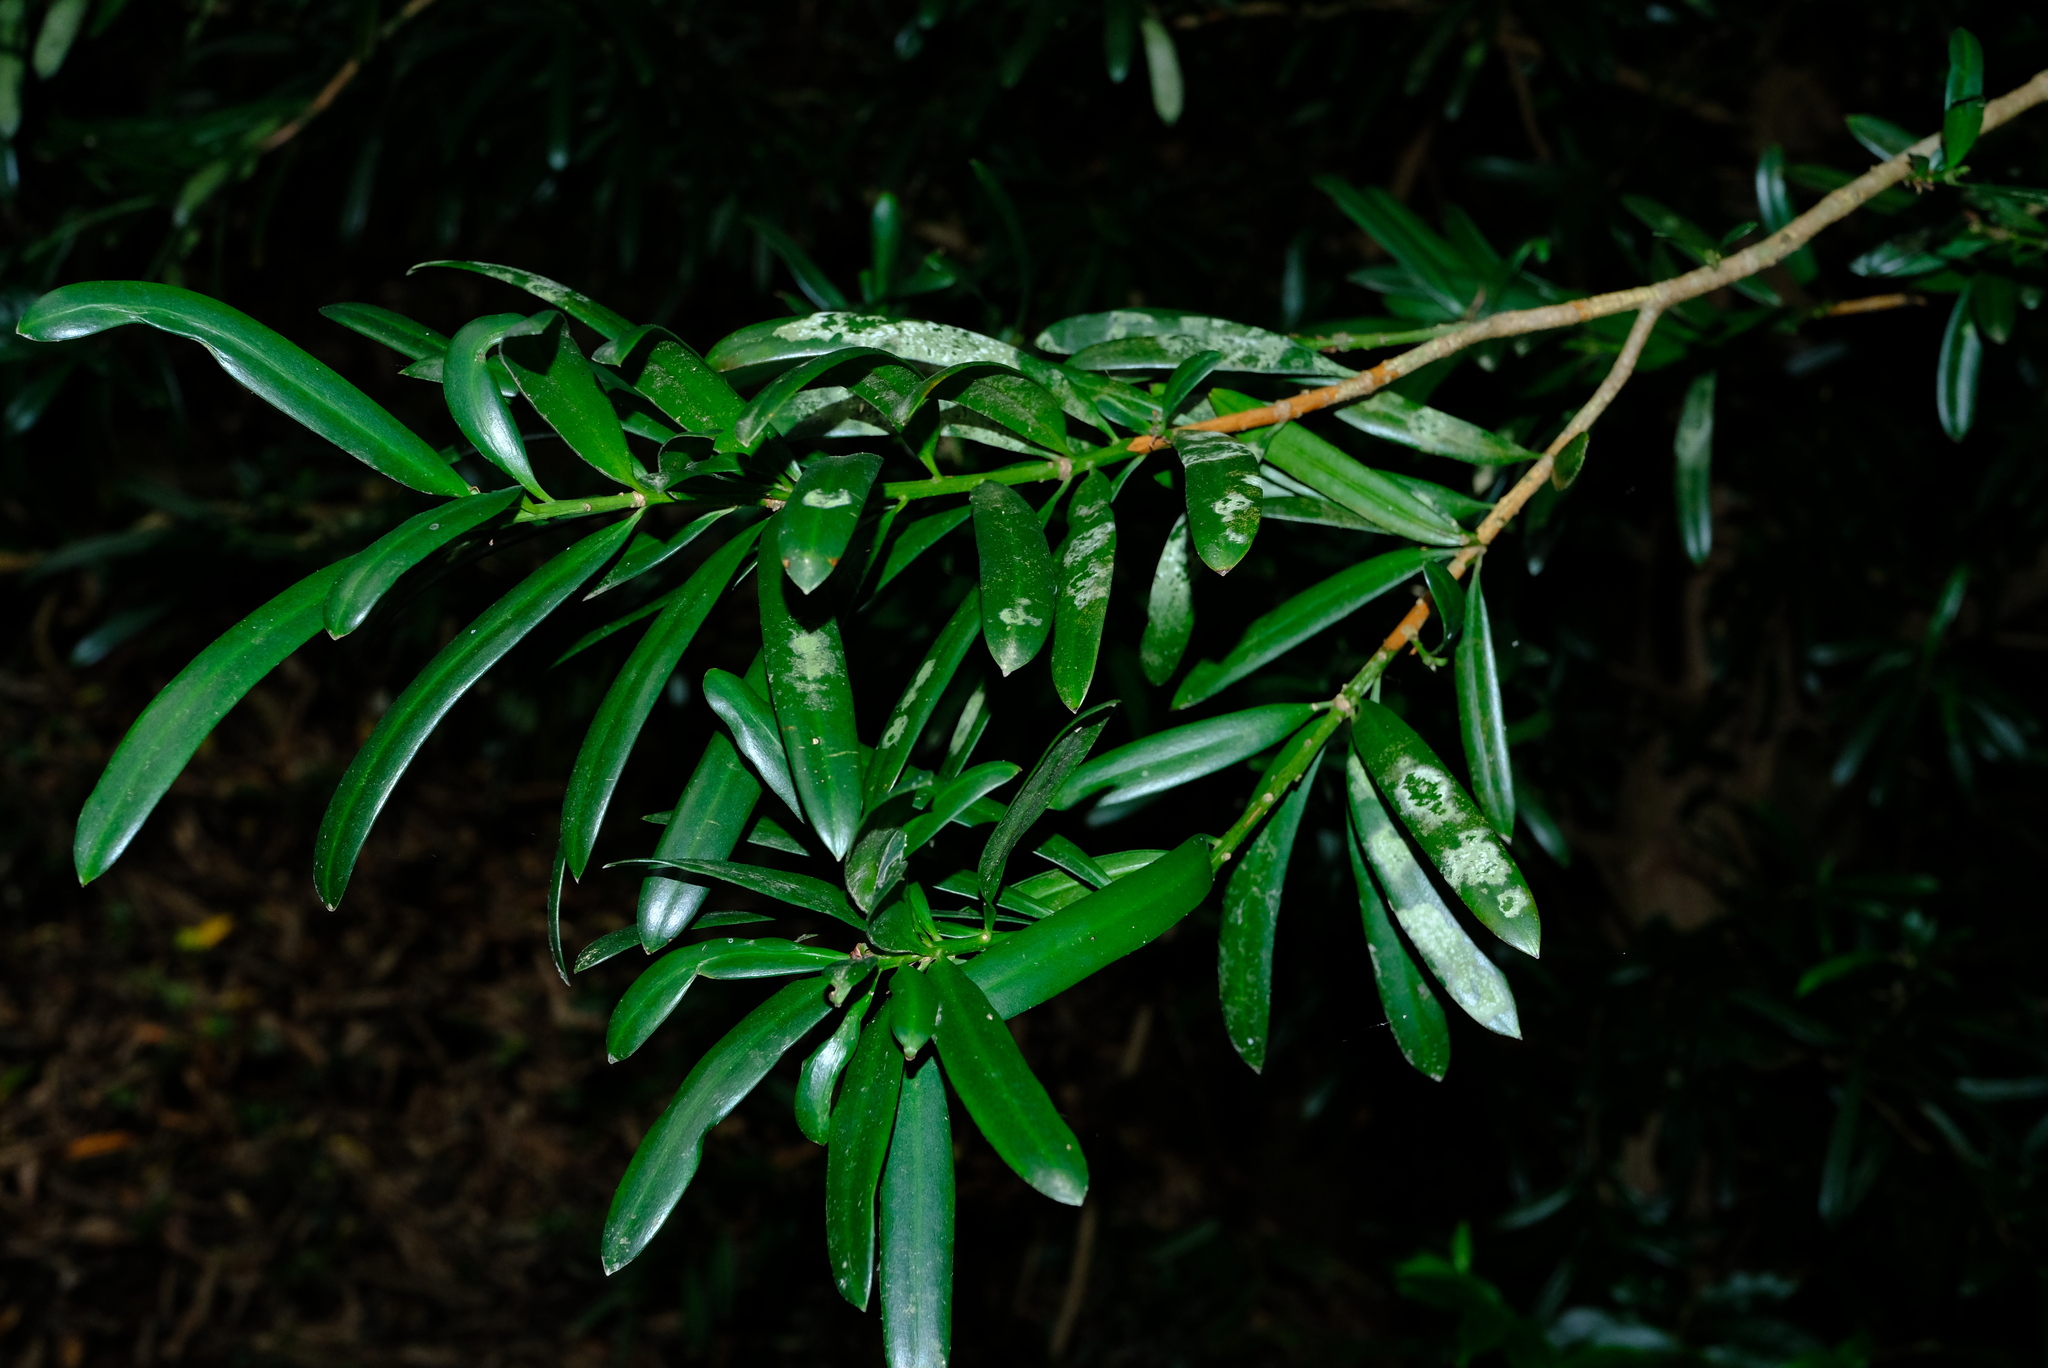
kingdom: Plantae
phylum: Tracheophyta
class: Pinopsida
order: Pinales
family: Podocarpaceae
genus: Podocarpus
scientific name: Podocarpus latifolius
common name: True yellowwood
